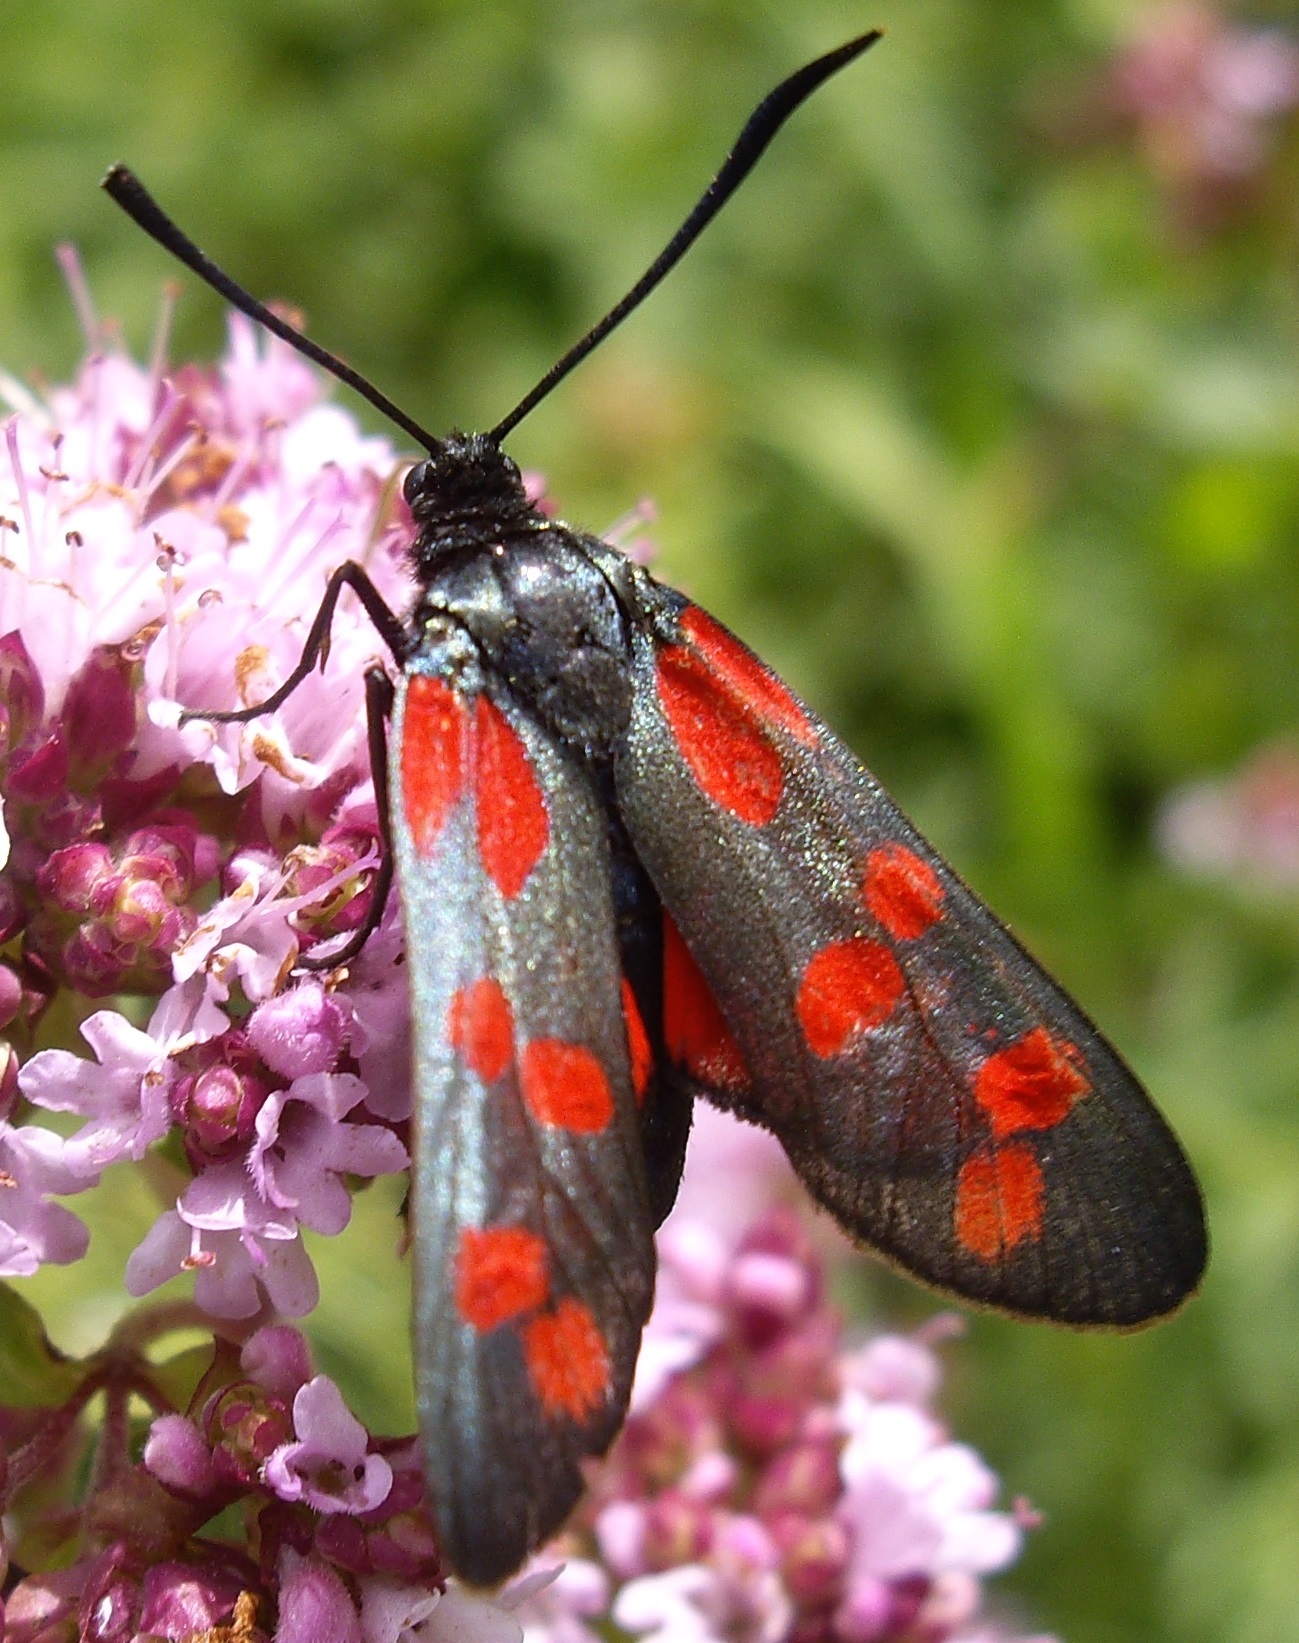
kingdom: Animalia
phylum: Arthropoda
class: Insecta
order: Lepidoptera
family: Zygaenidae
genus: Zygaena
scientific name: Zygaena filipendulae
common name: Six-spot burnet
